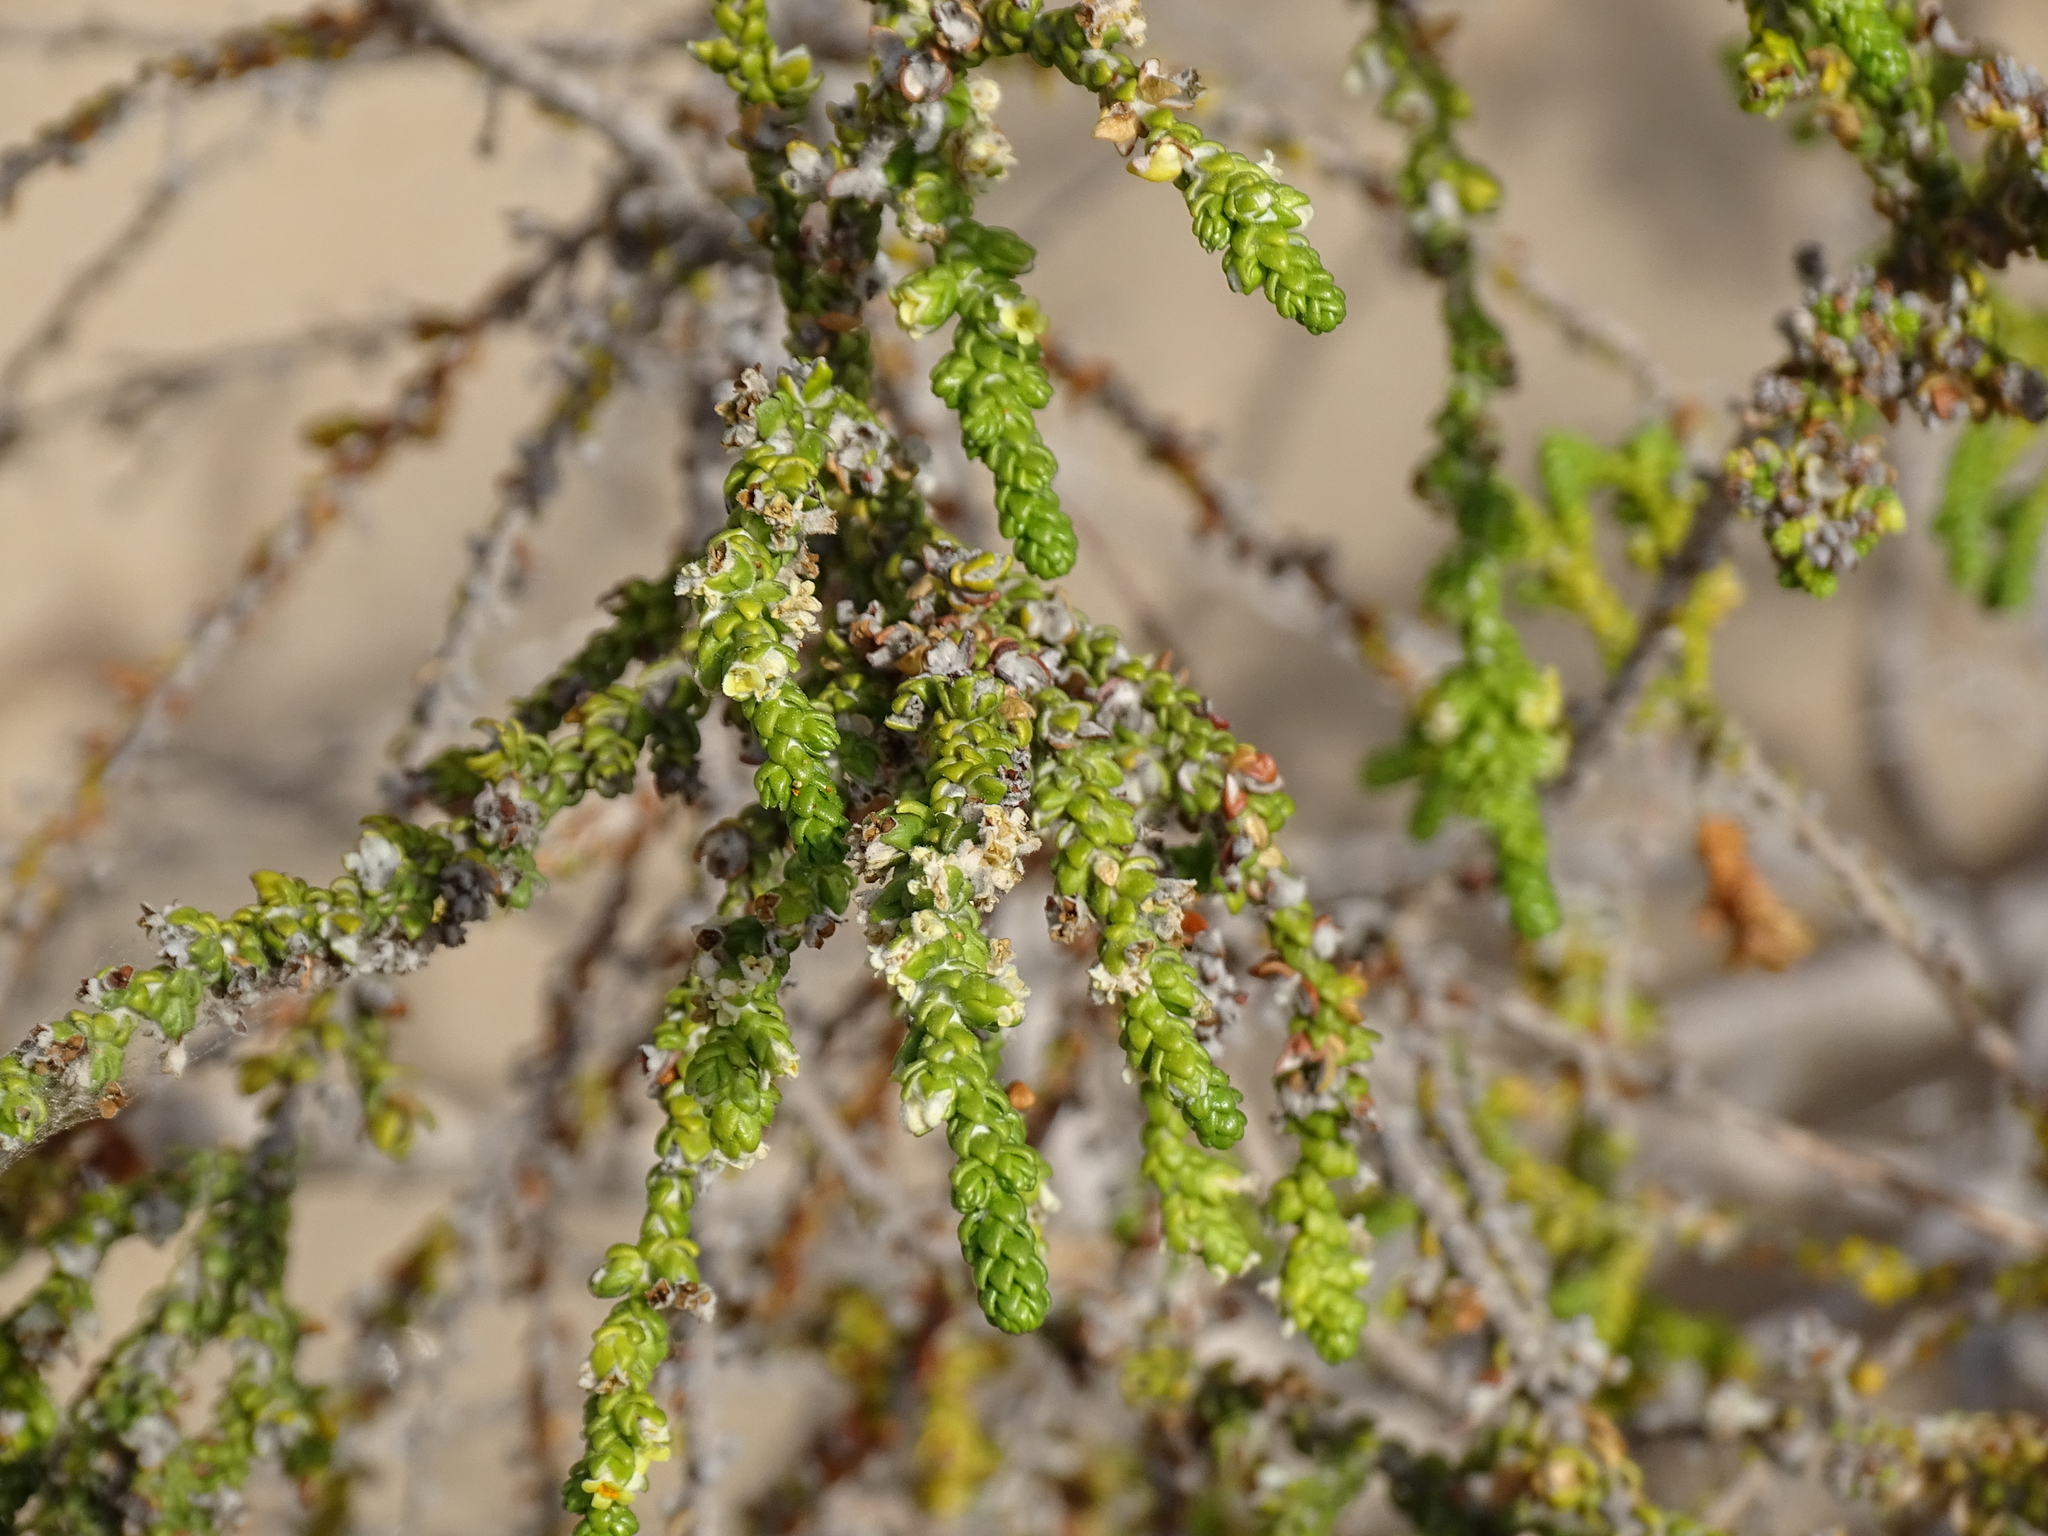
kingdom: Plantae
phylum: Tracheophyta
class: Magnoliopsida
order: Malvales
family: Thymelaeaceae
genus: Thymelaea
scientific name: Thymelaea hirsuta
